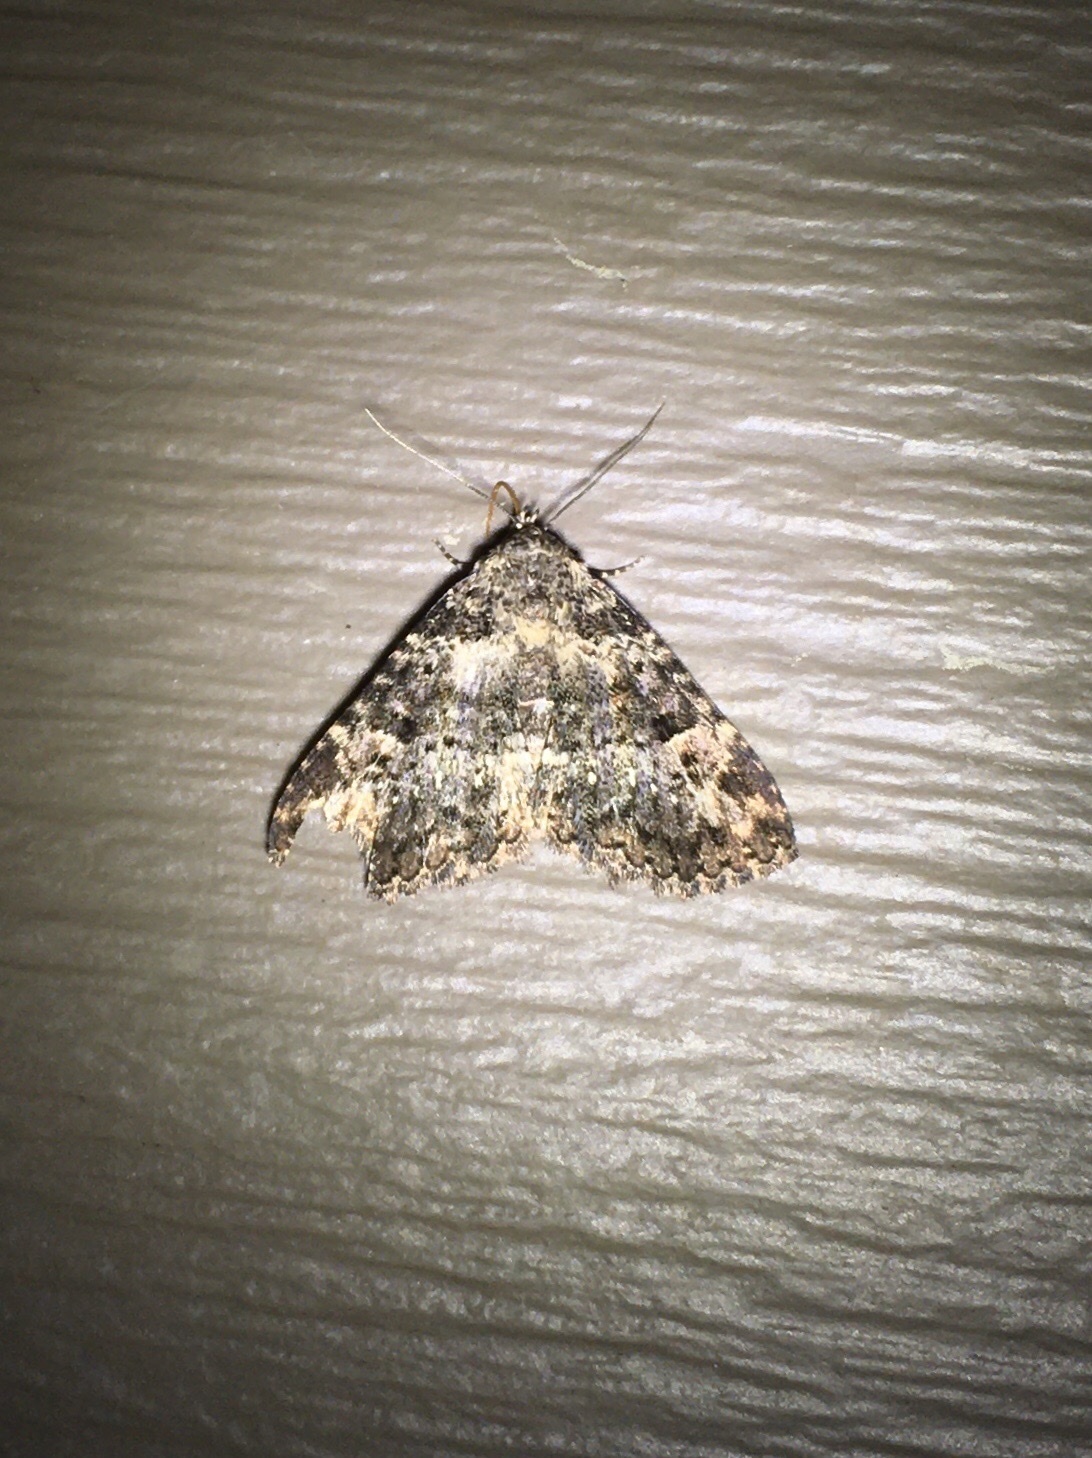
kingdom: Animalia
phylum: Arthropoda
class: Insecta
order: Lepidoptera
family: Erebidae
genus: Metalectra
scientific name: Metalectra discalis
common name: Common fungus moth
